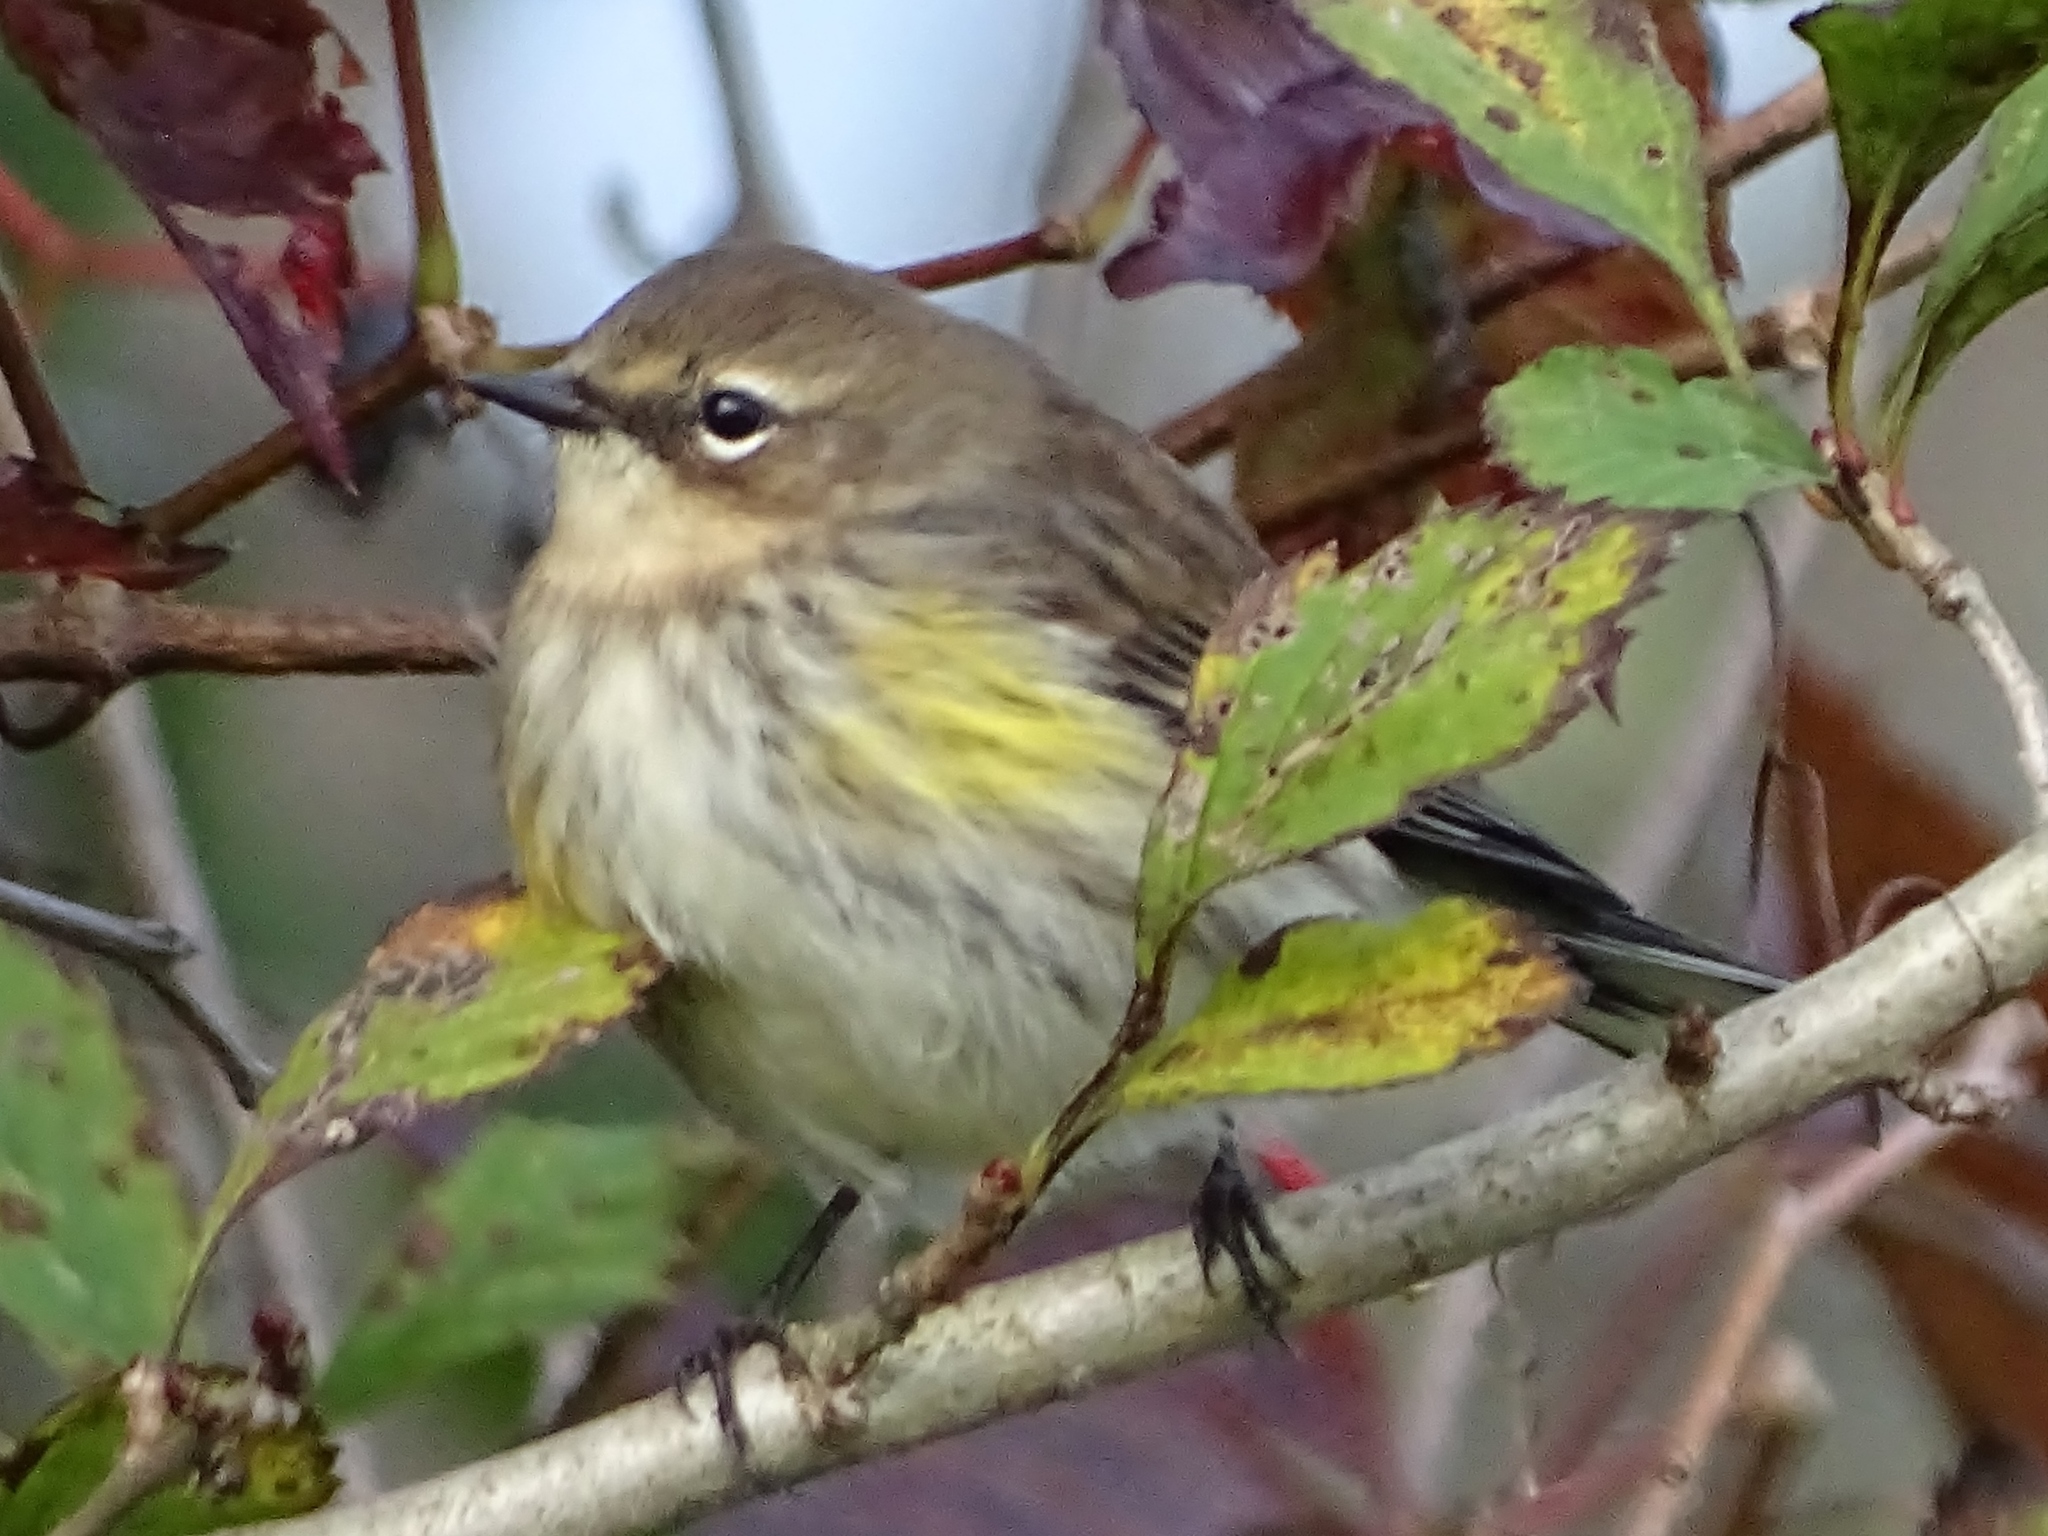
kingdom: Animalia
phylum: Chordata
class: Aves
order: Passeriformes
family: Parulidae
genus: Setophaga
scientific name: Setophaga coronata
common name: Myrtle warbler
